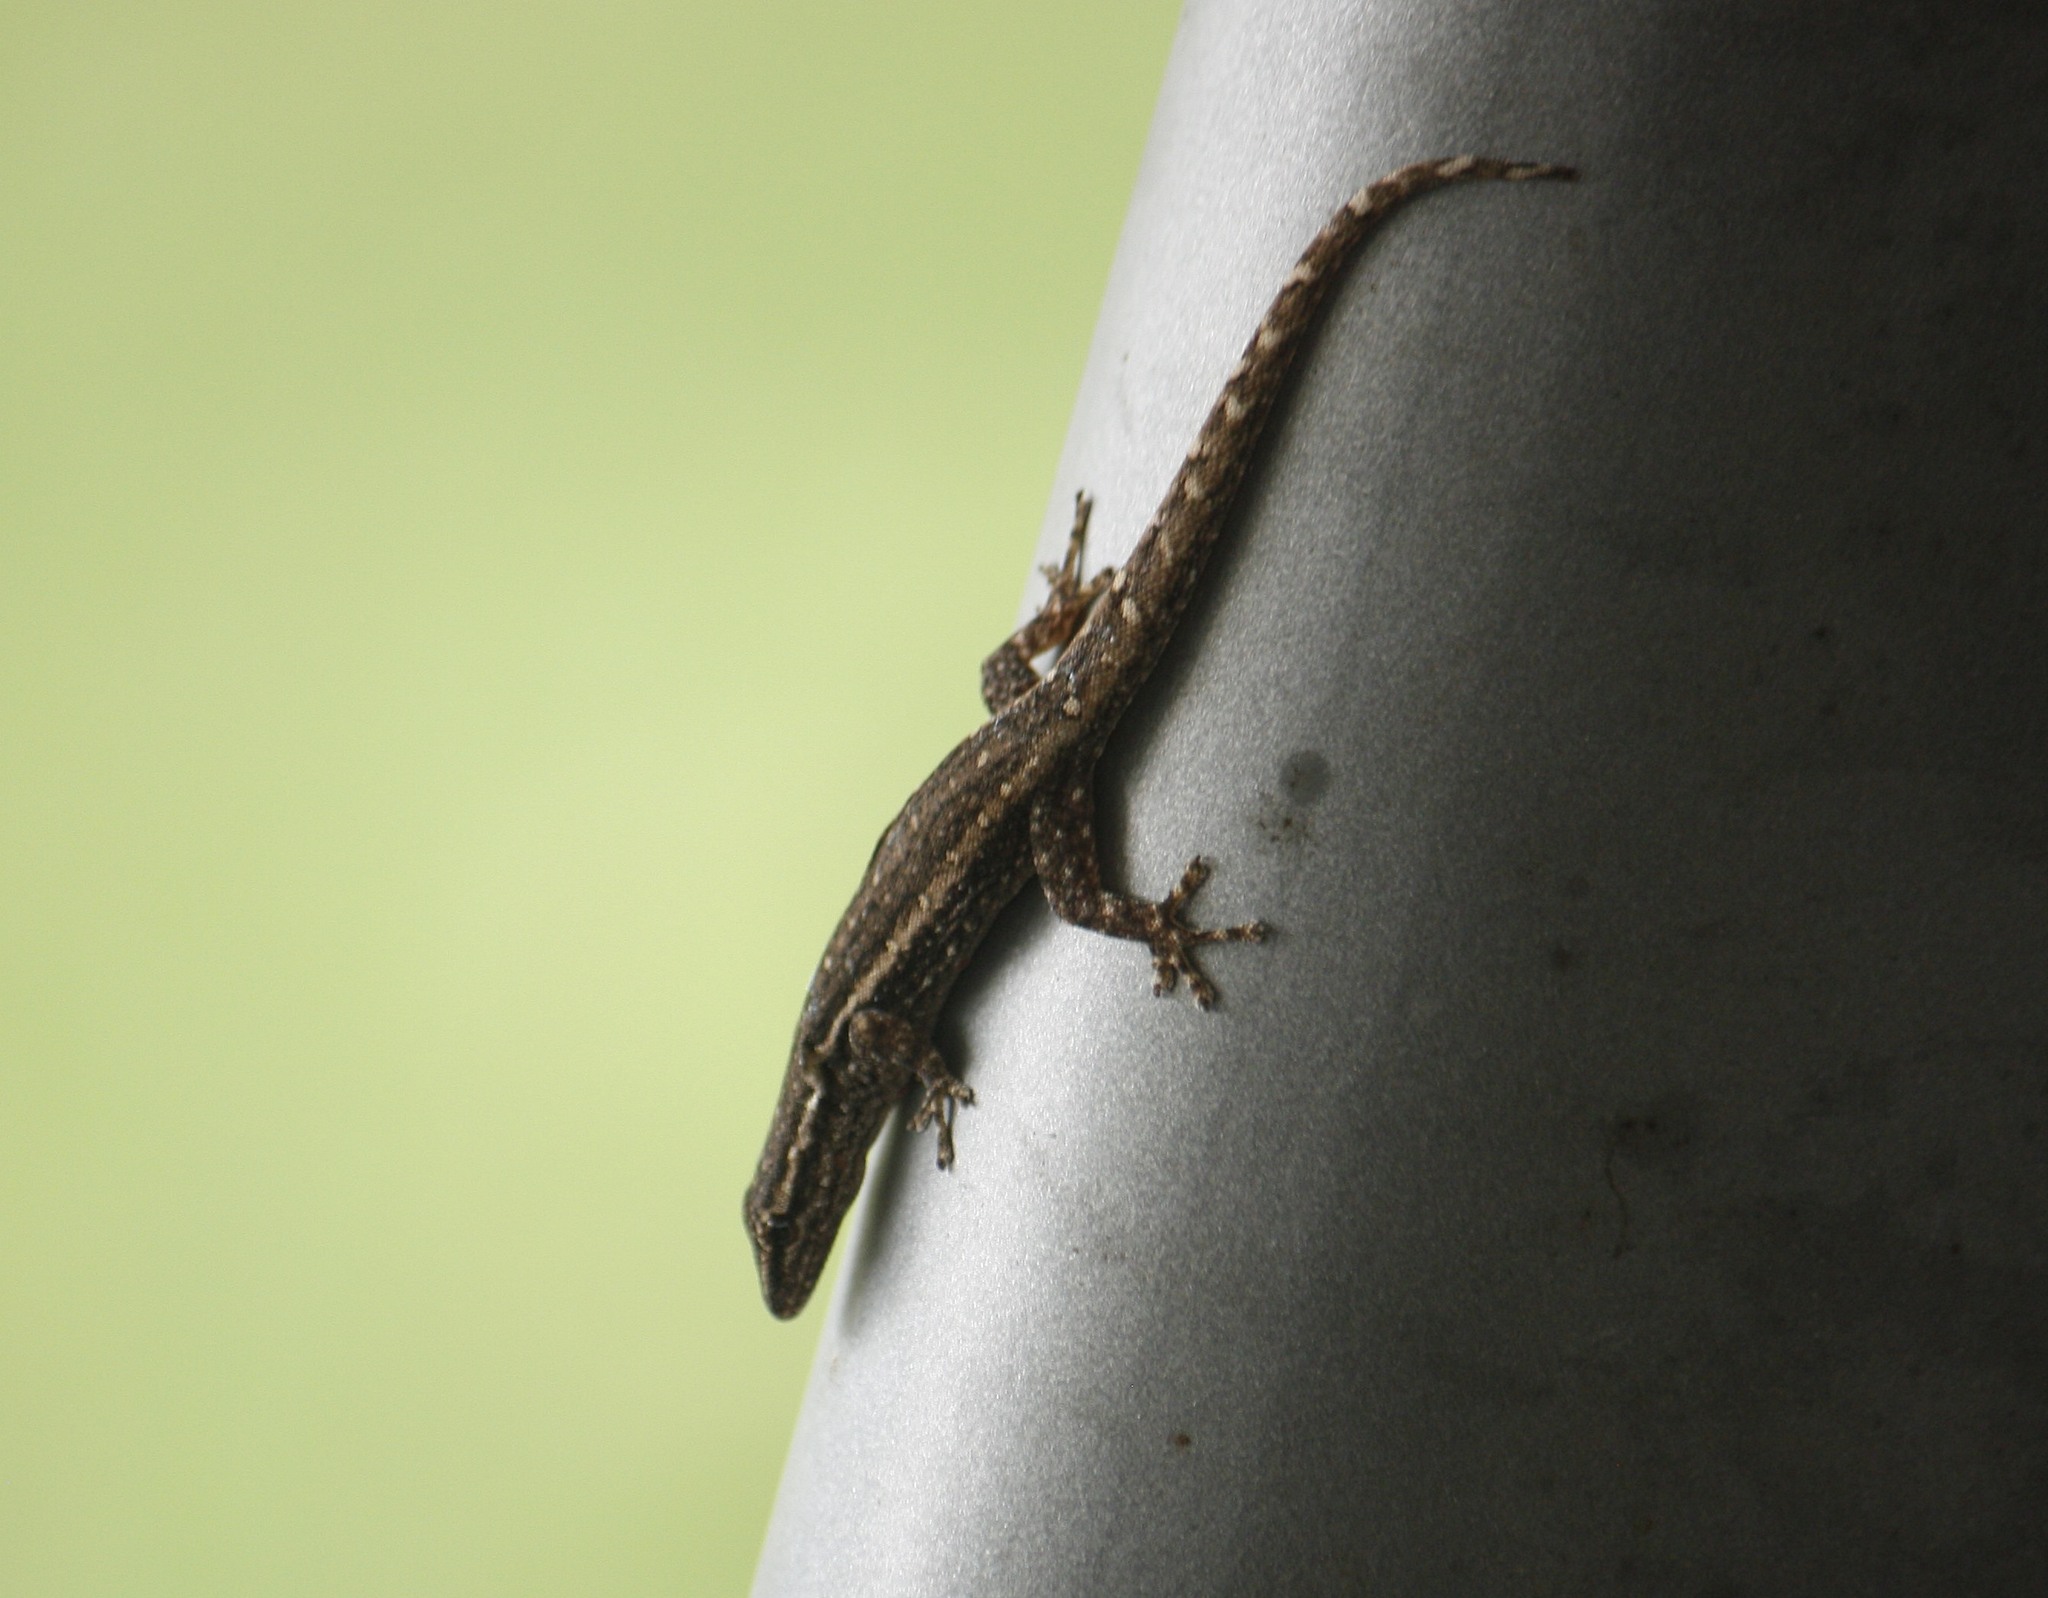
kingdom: Animalia
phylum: Chordata
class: Squamata
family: Gekkonidae
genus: Lygodactylus
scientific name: Lygodactylus capensis
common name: Cape dwarf gecko
